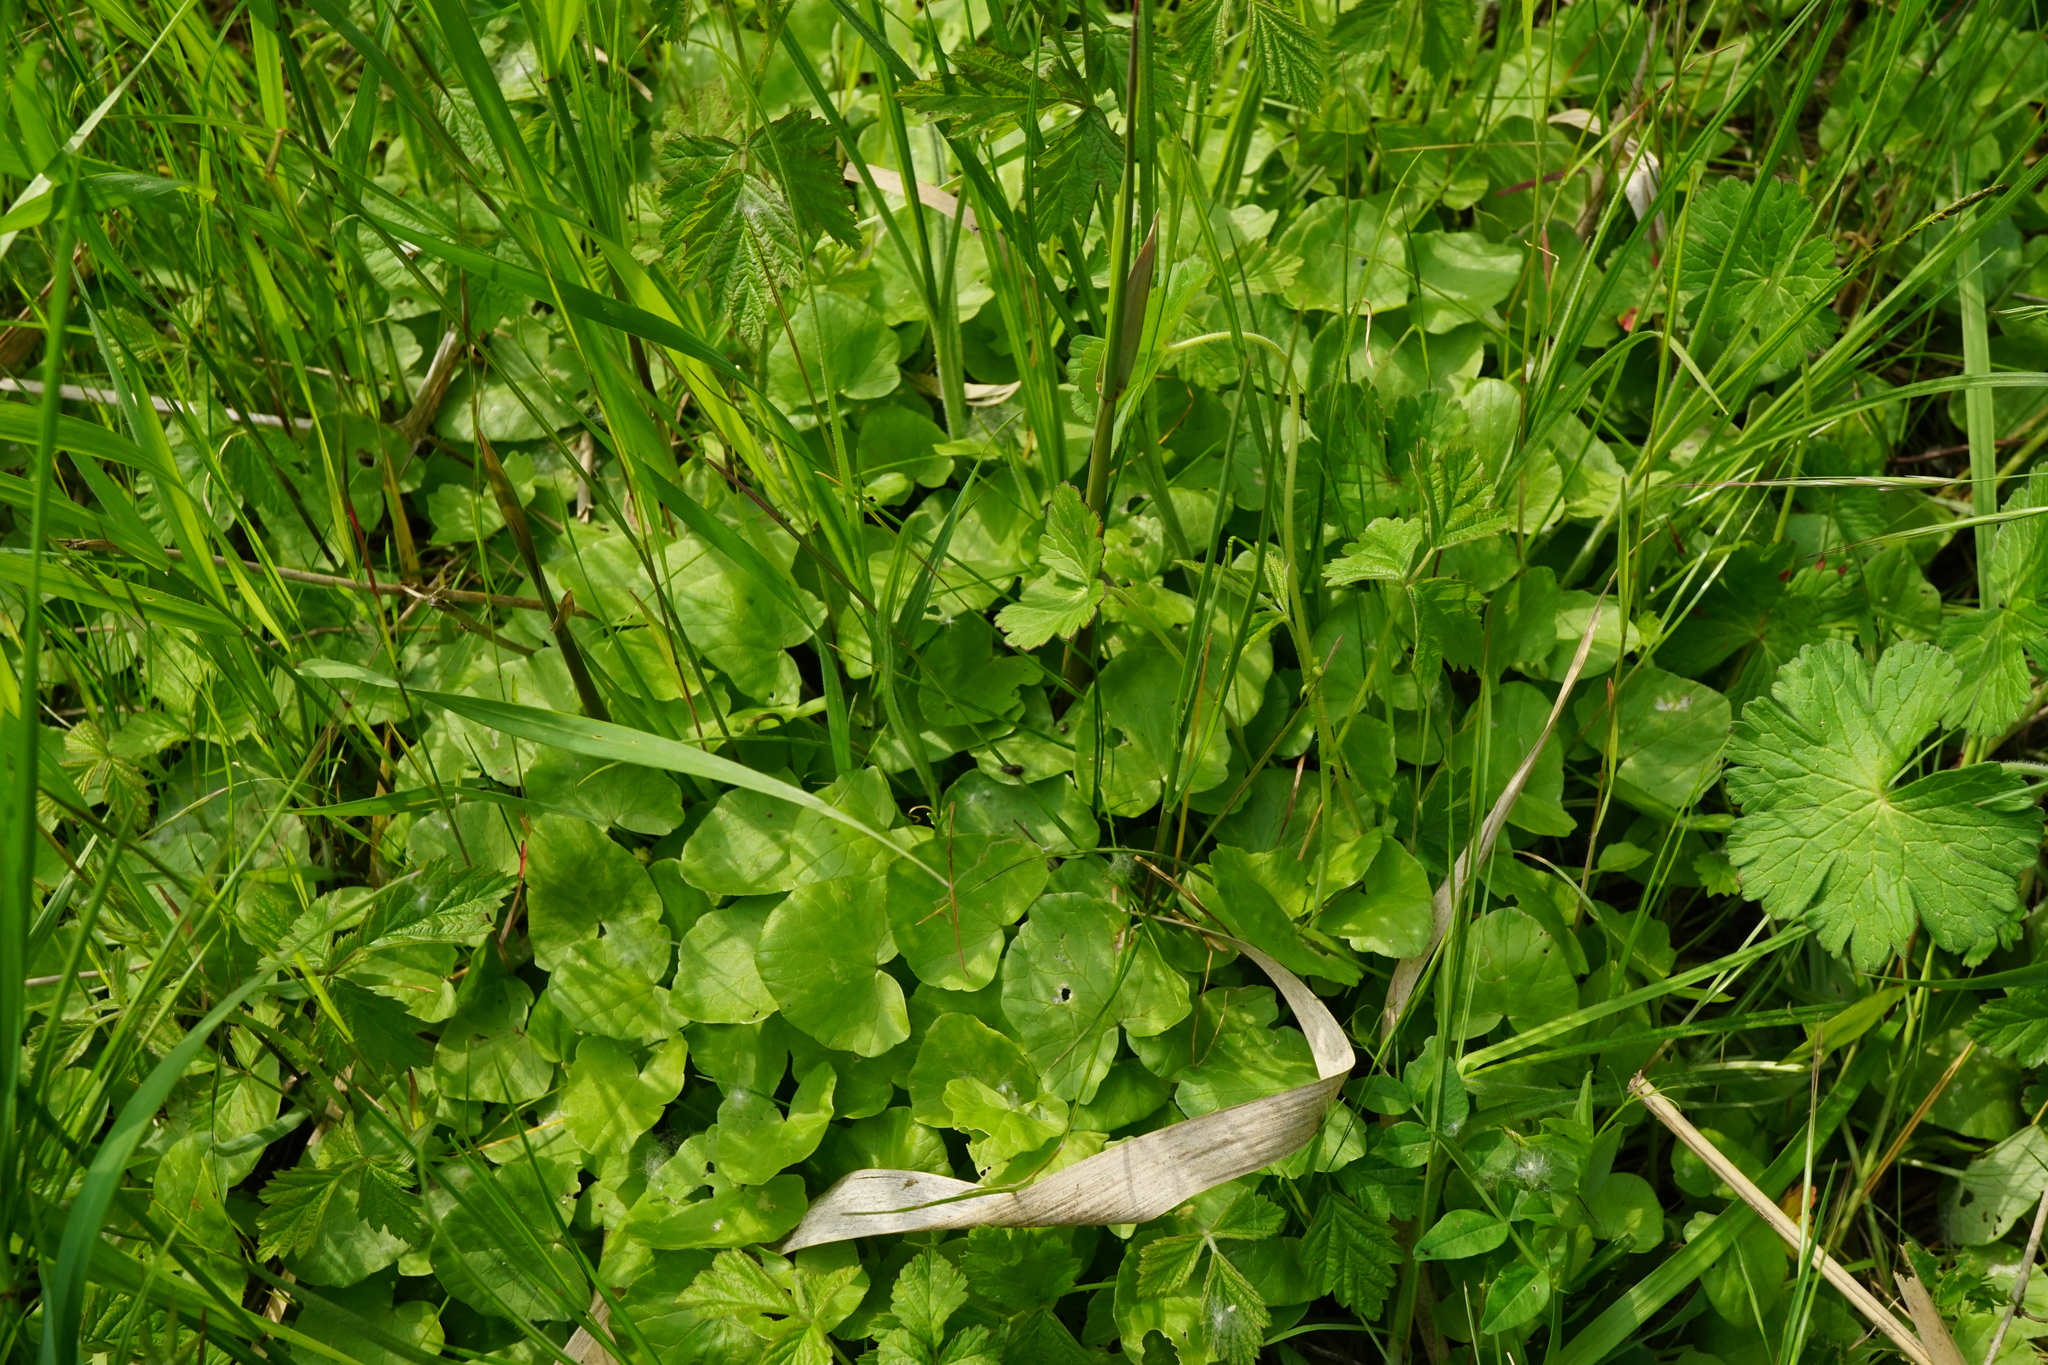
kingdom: Plantae
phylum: Tracheophyta
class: Magnoliopsida
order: Ranunculales
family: Ranunculaceae
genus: Ficaria
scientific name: Ficaria verna
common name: Lesser celandine
